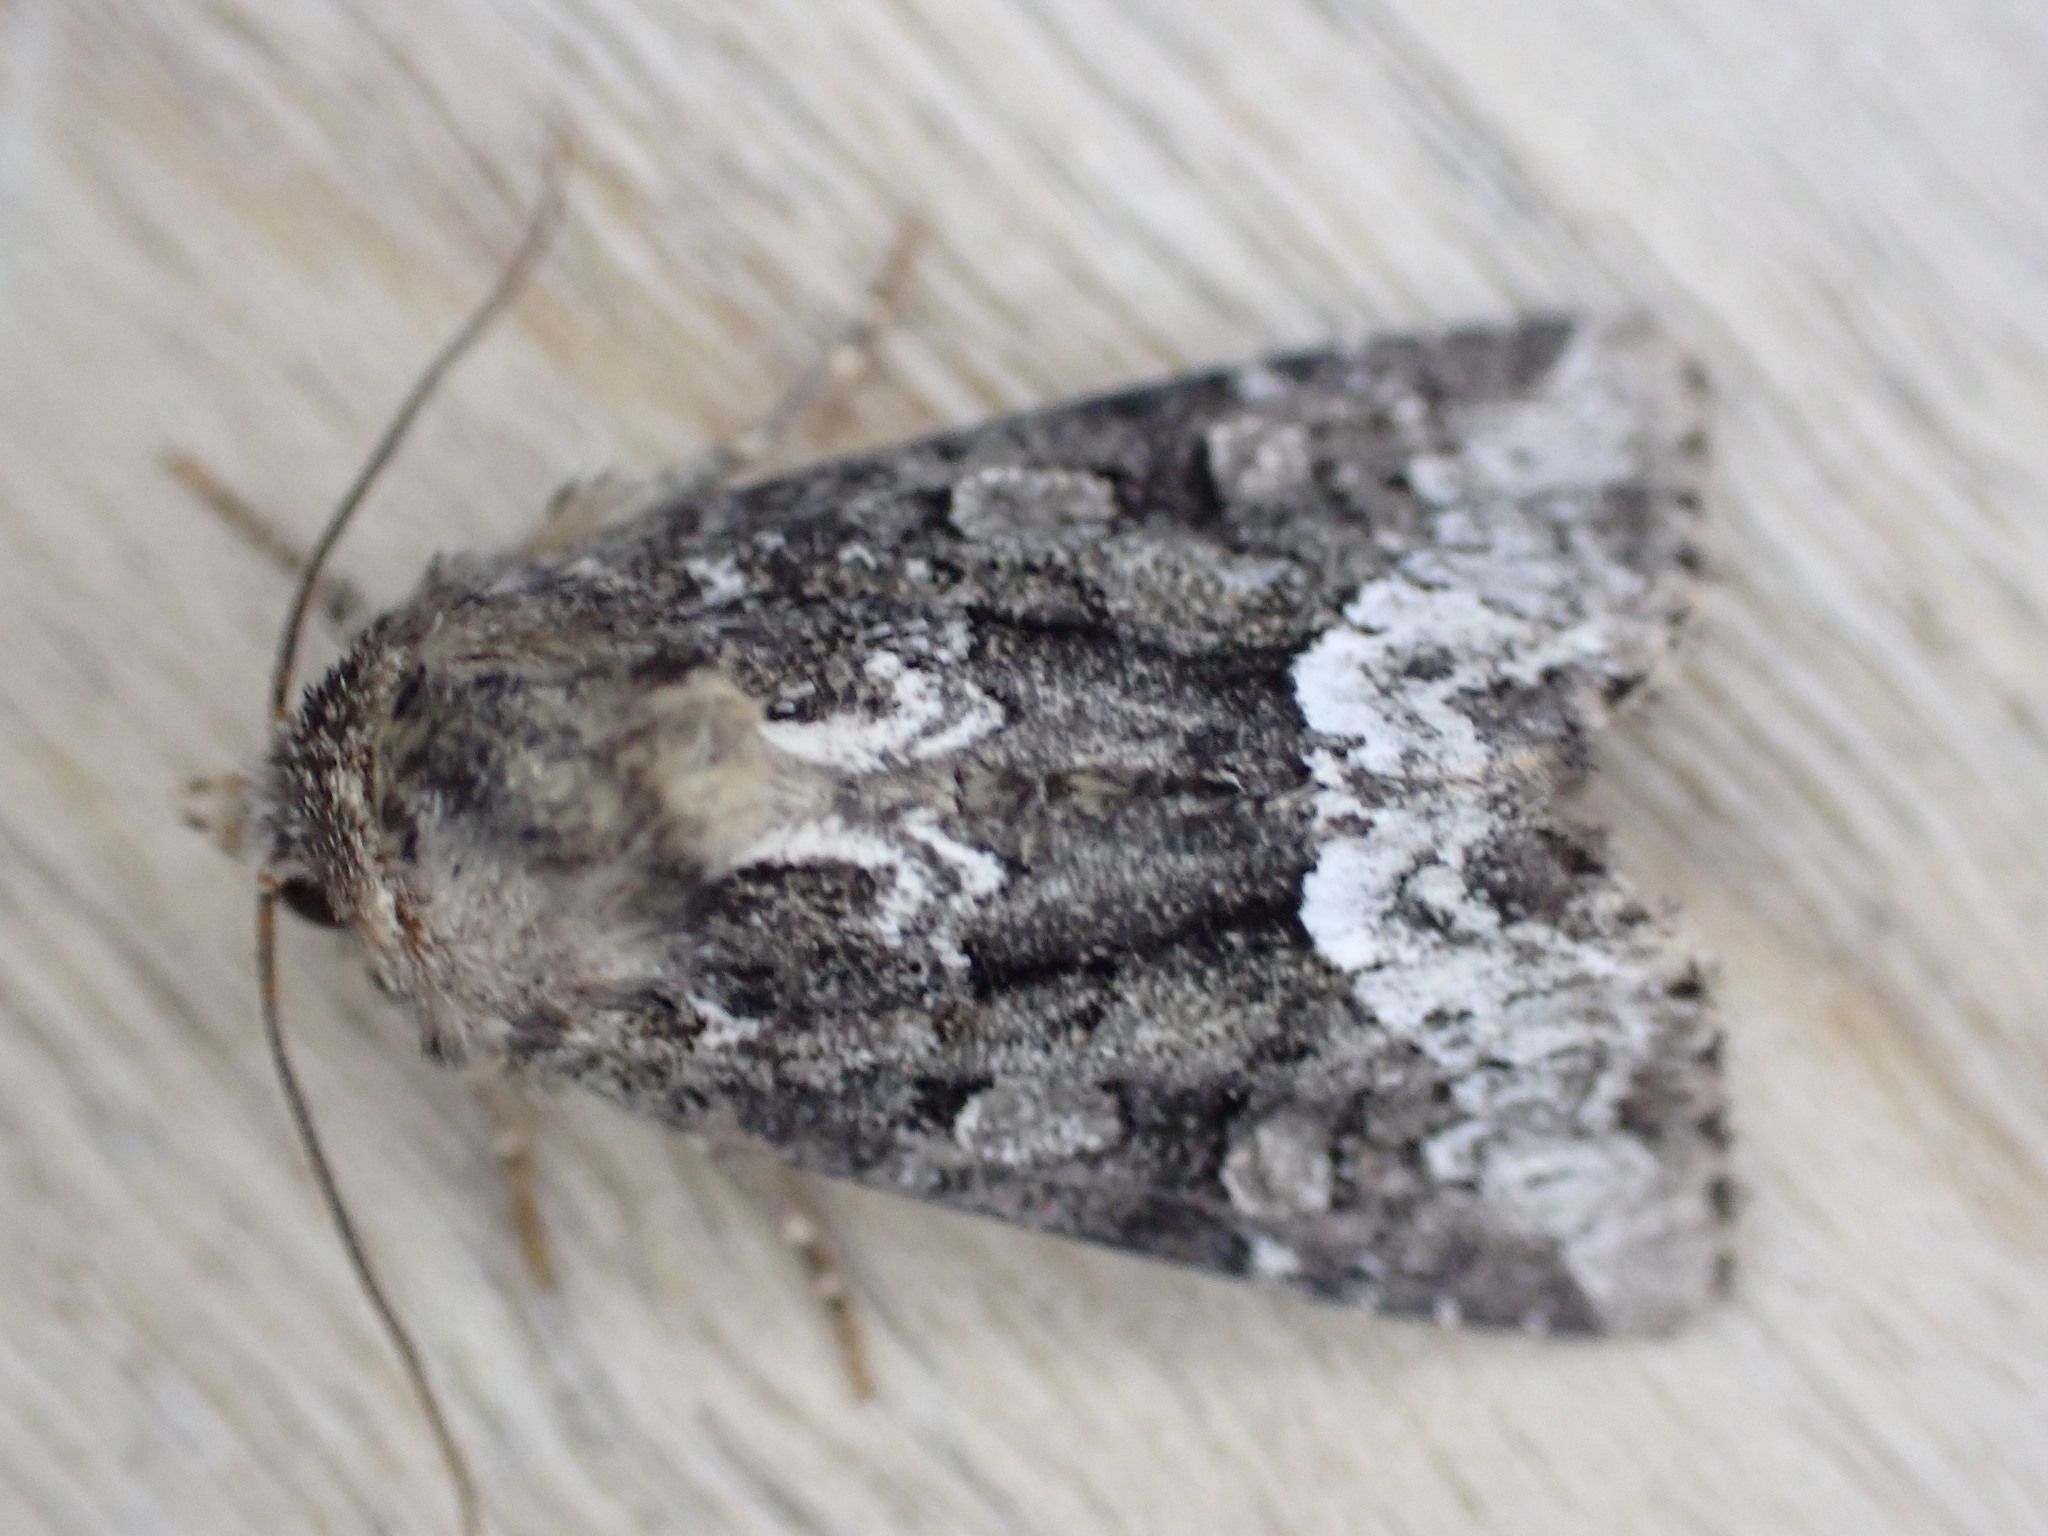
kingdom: Animalia
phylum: Arthropoda
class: Insecta
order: Lepidoptera
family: Noctuidae
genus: Oligia
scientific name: Oligia strigilis
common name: Marbled minor
